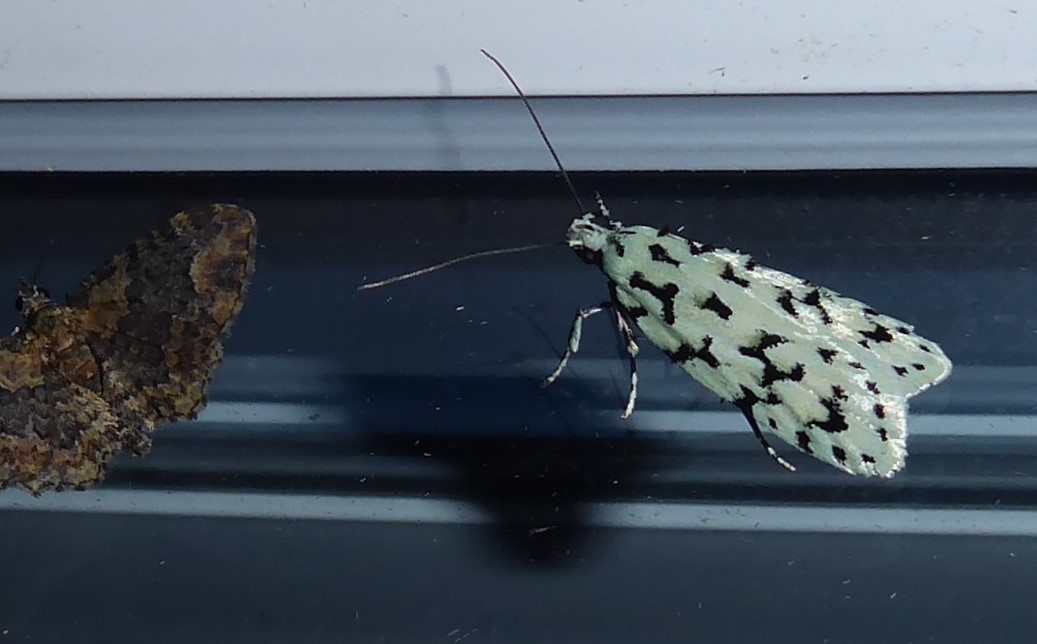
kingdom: Animalia
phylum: Arthropoda
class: Insecta
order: Lepidoptera
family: Oecophoridae
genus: Izatha
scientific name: Izatha huttoni
